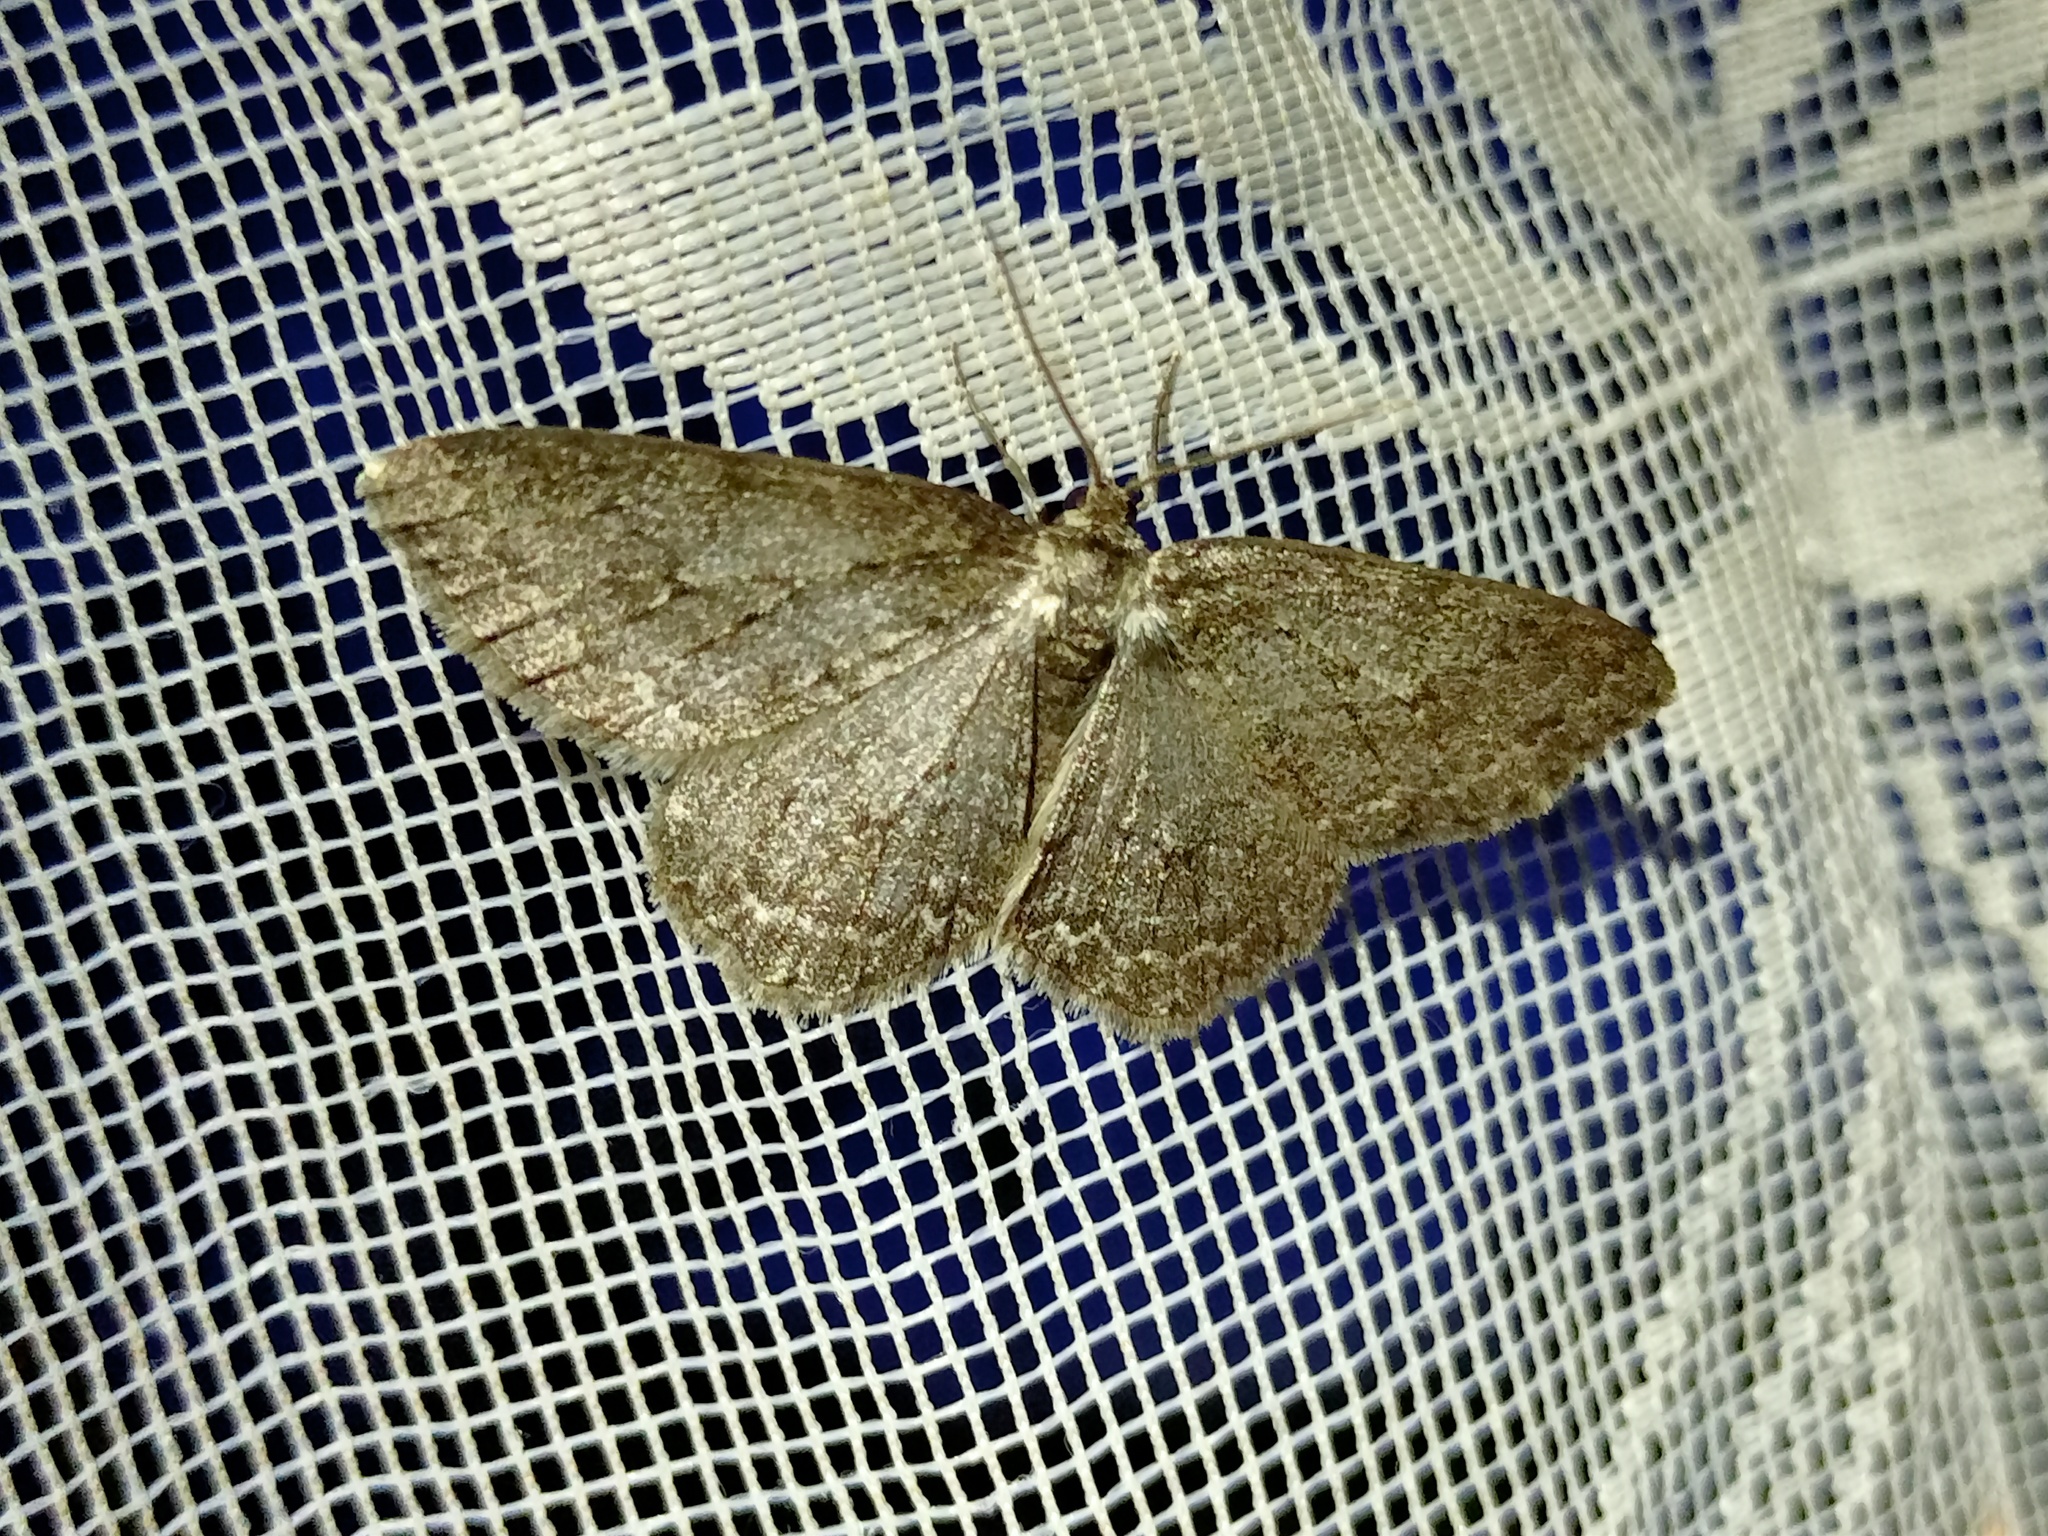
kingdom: Animalia
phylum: Arthropoda
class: Insecta
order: Lepidoptera
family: Geometridae
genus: Ectropis
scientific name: Ectropis crepuscularia
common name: Engrailed
